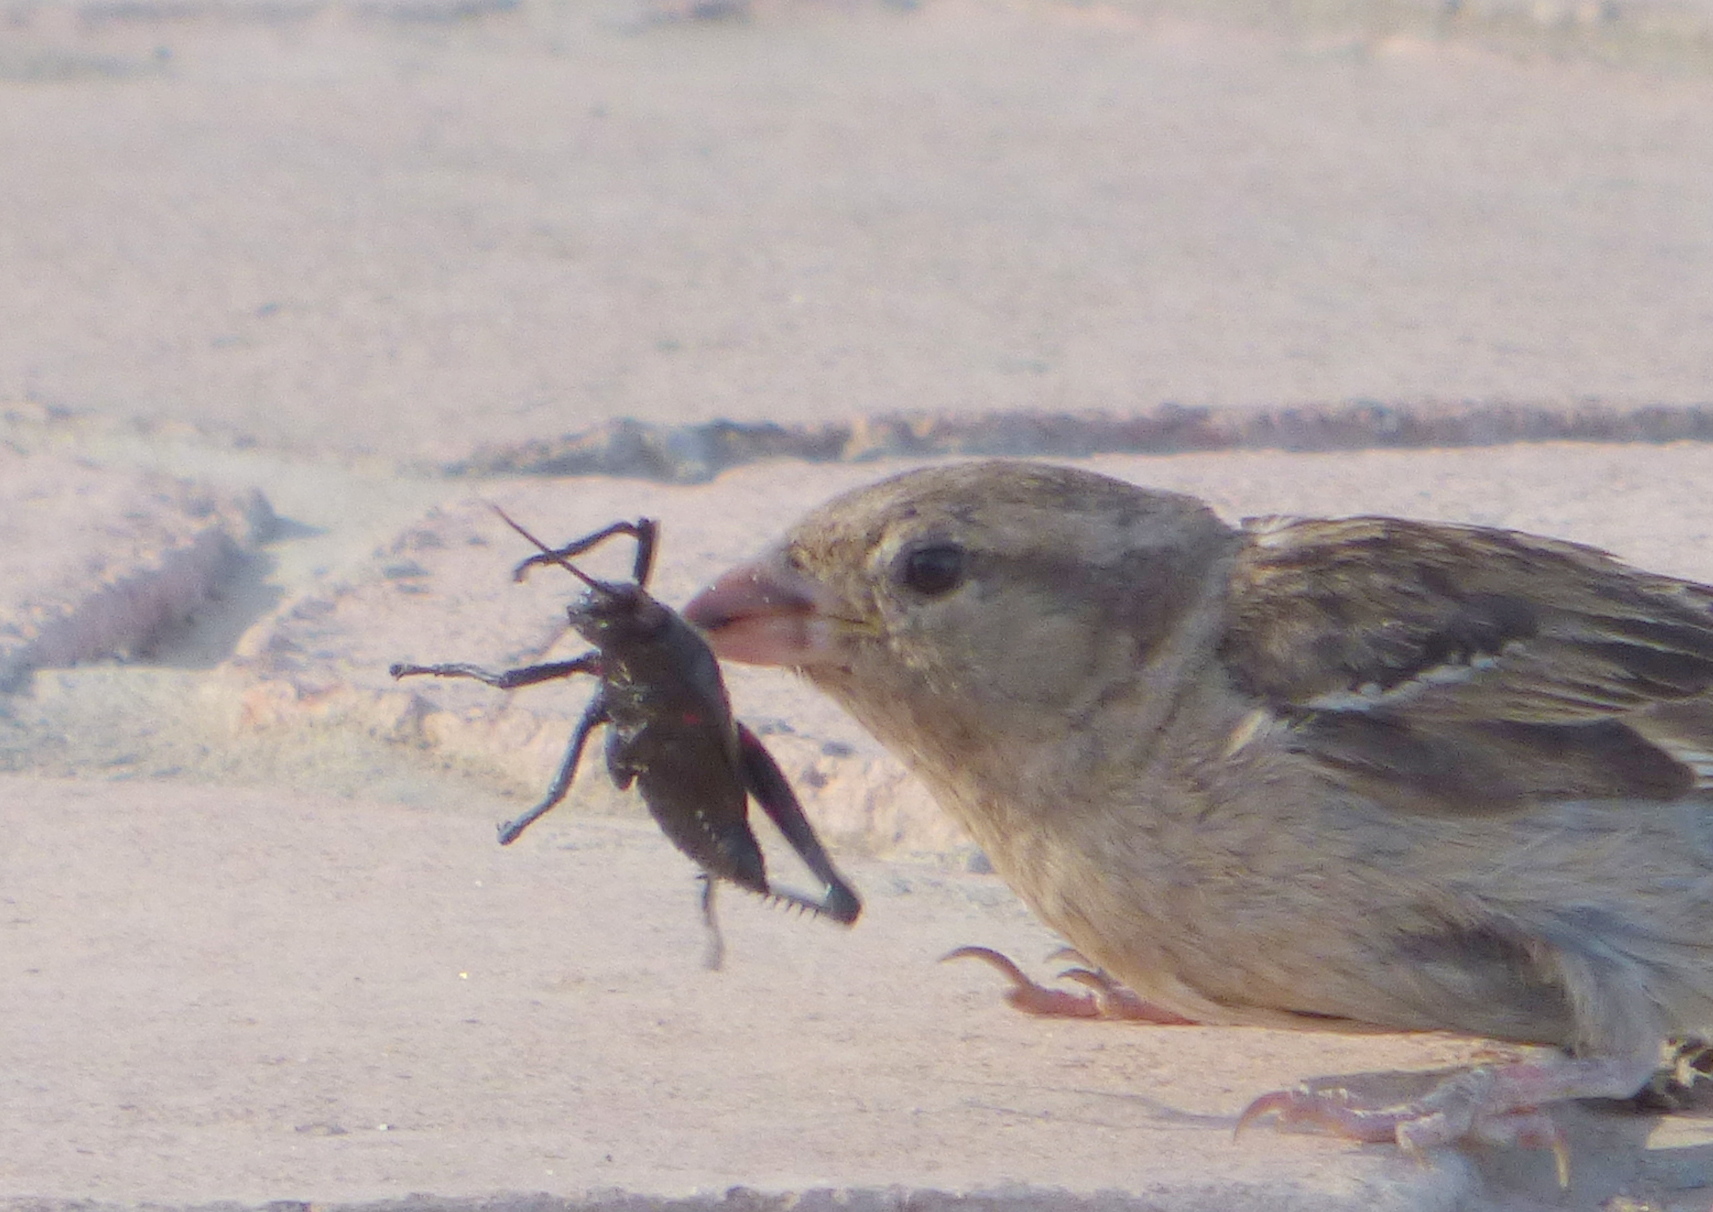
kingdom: Animalia
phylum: Arthropoda
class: Insecta
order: Orthoptera
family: Romaleidae
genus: Chromacris
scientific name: Chromacris speciosa
